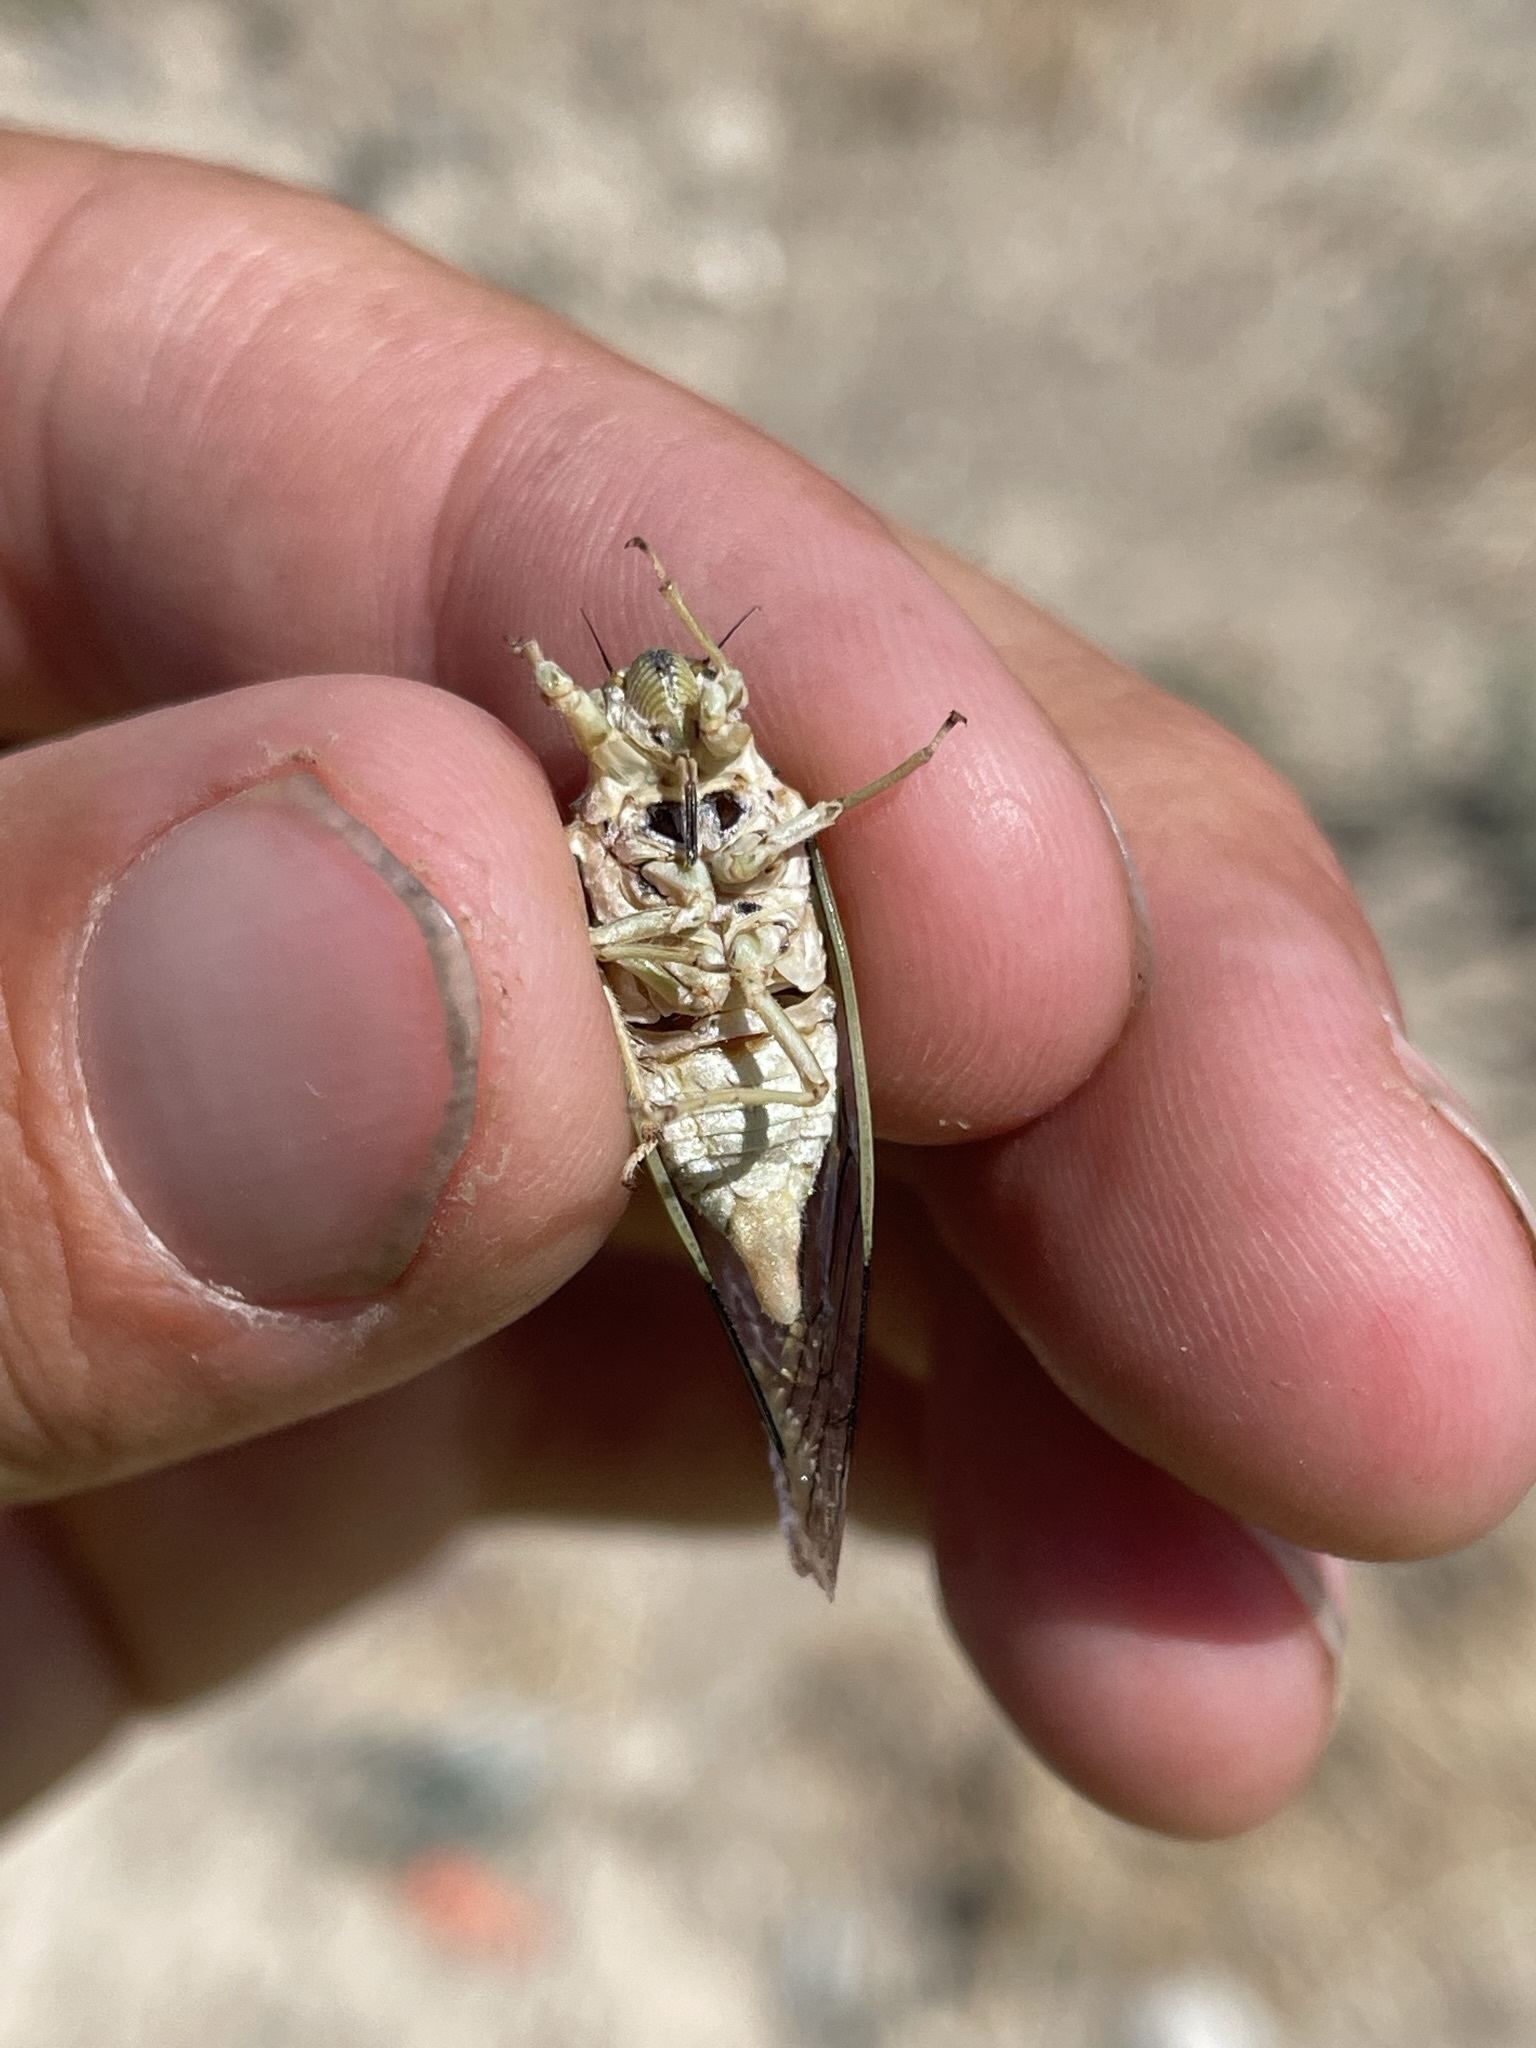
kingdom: Animalia
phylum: Arthropoda
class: Insecta
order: Hemiptera
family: Cicadidae
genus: Okanagodes
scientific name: Okanagodes gracilis
